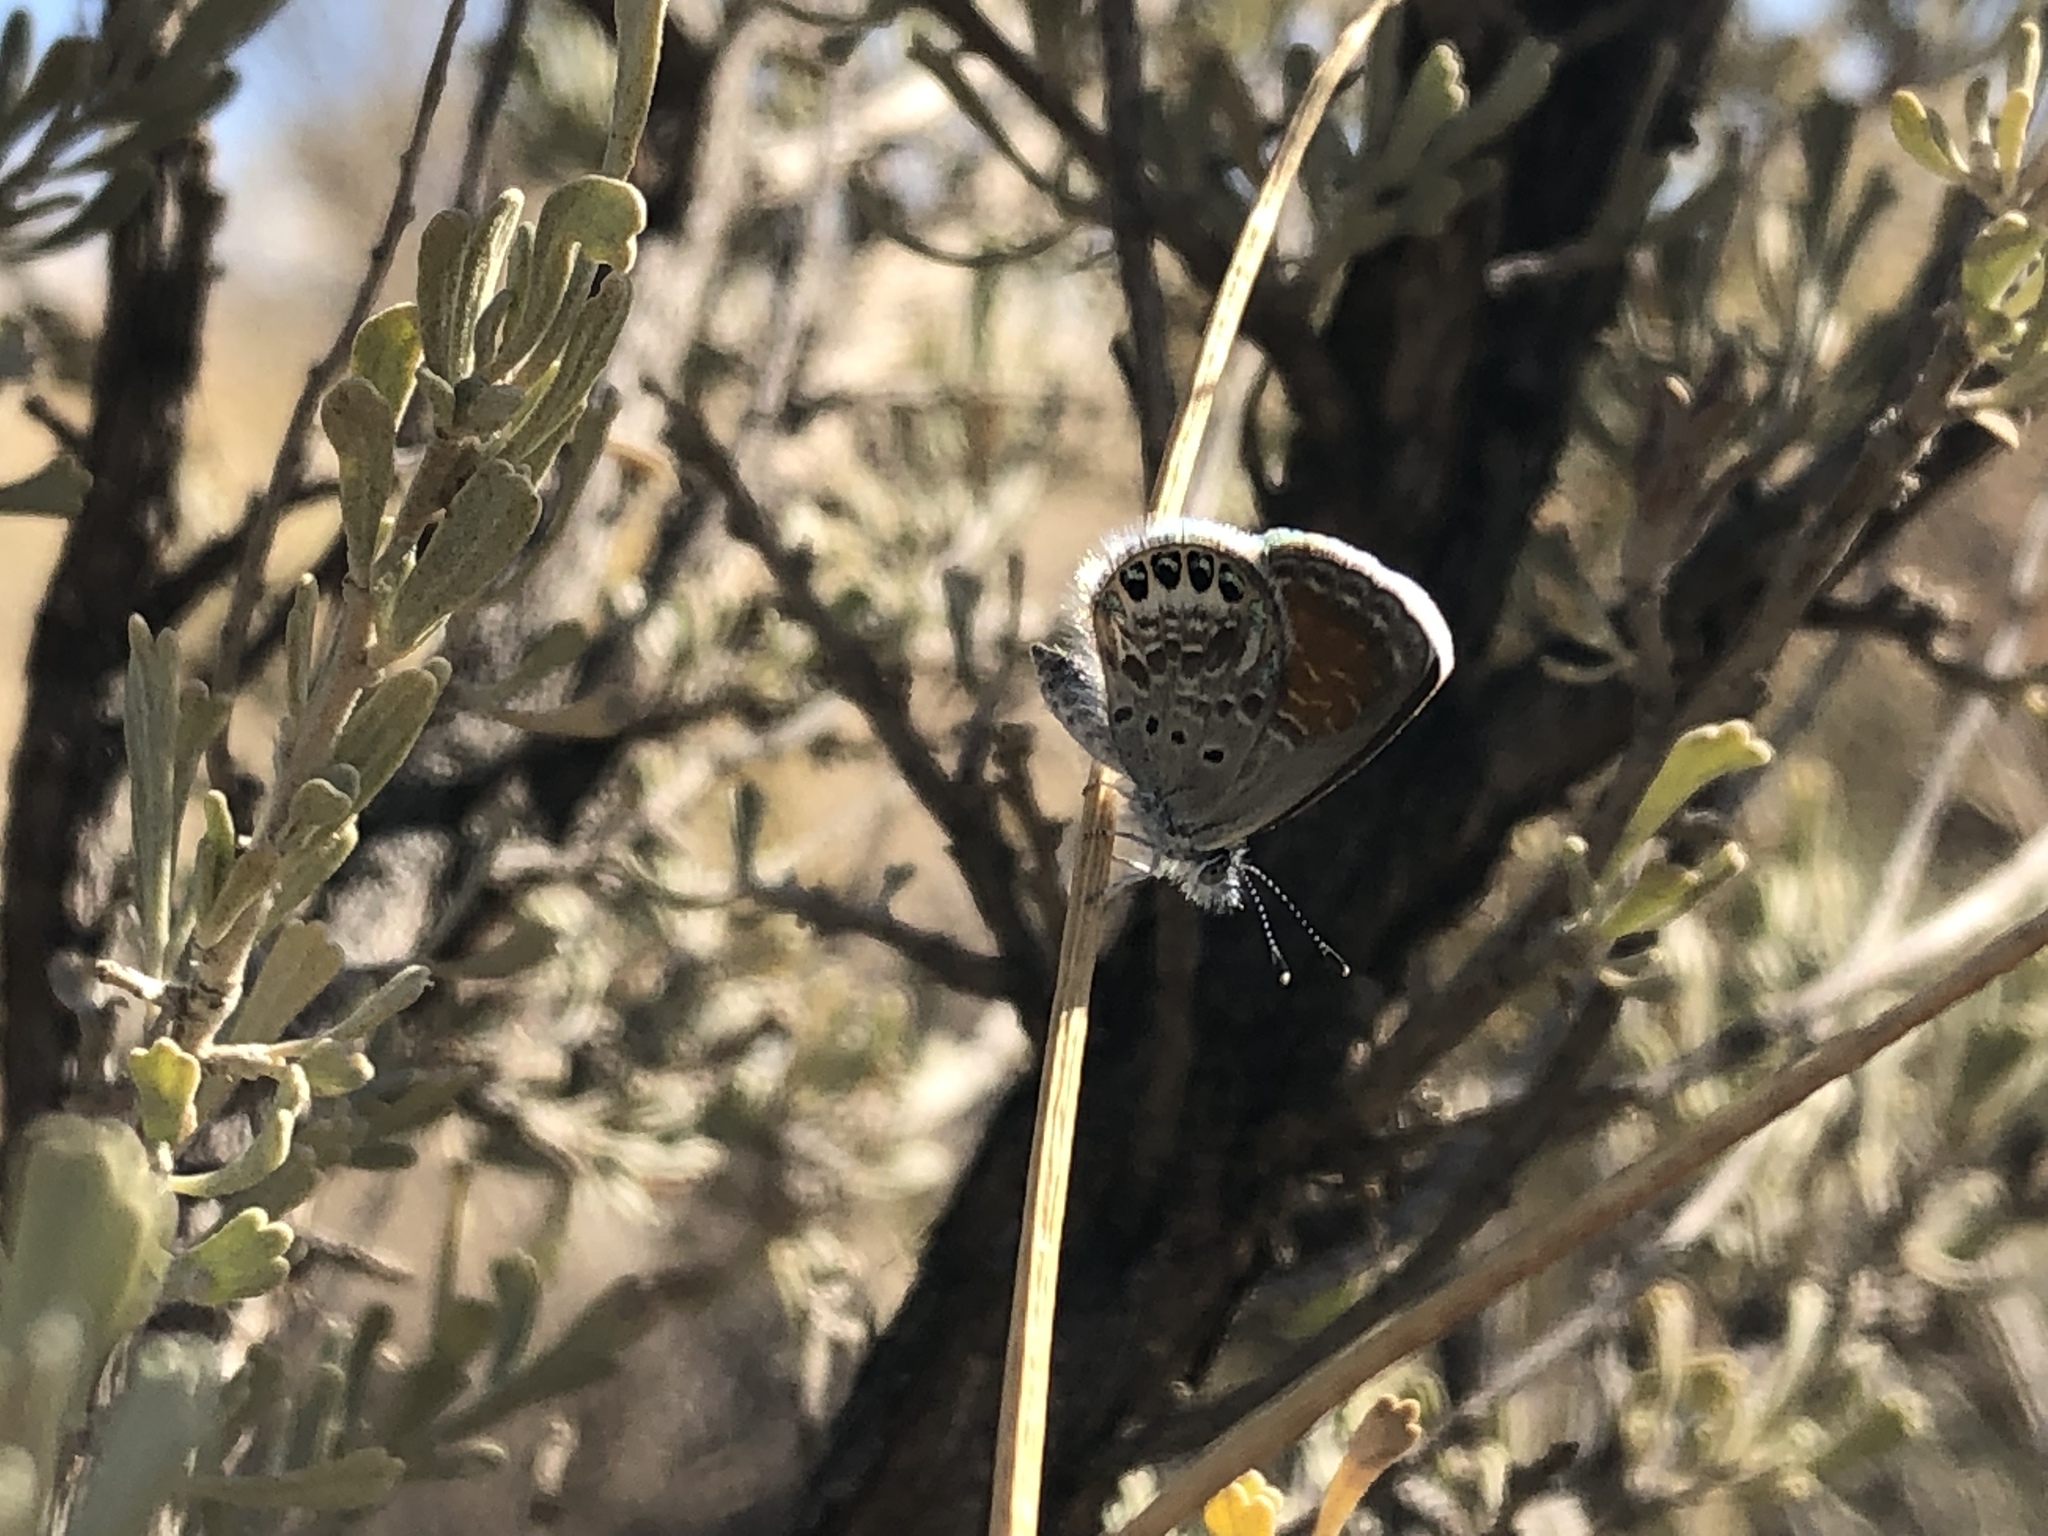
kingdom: Animalia
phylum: Arthropoda
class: Insecta
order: Lepidoptera
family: Lycaenidae
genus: Brephidium
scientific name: Brephidium exilis
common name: Pygmy blue
